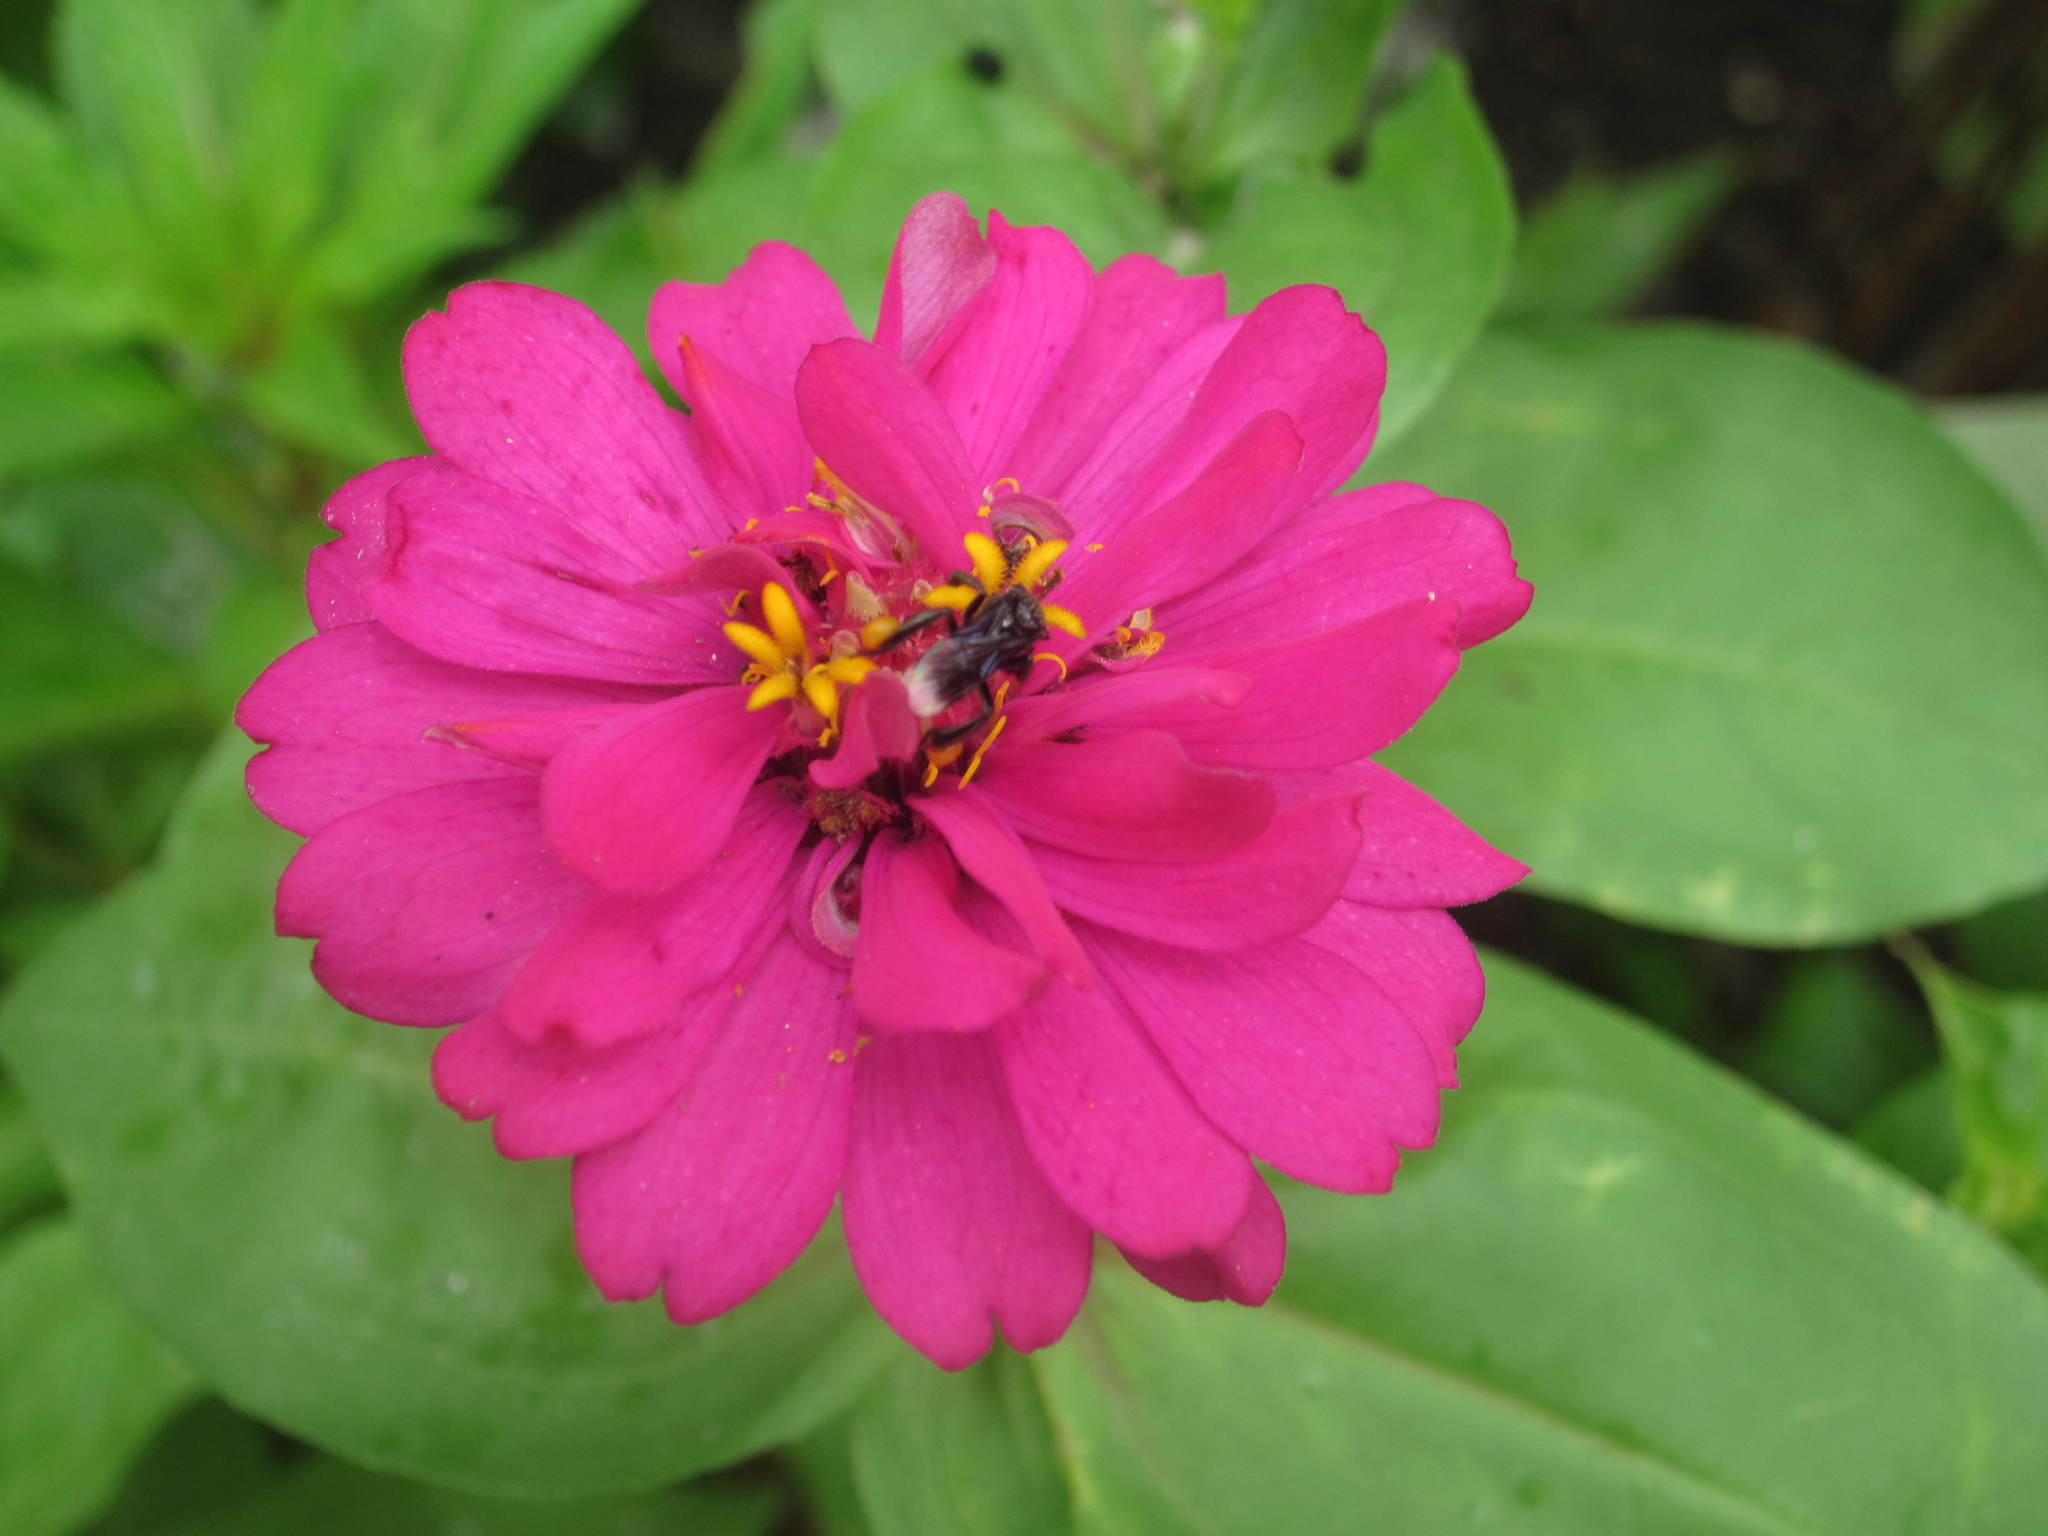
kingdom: Animalia
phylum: Arthropoda
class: Insecta
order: Hymenoptera
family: Apidae
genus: Frieseomelitta
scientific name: Frieseomelitta nigra
